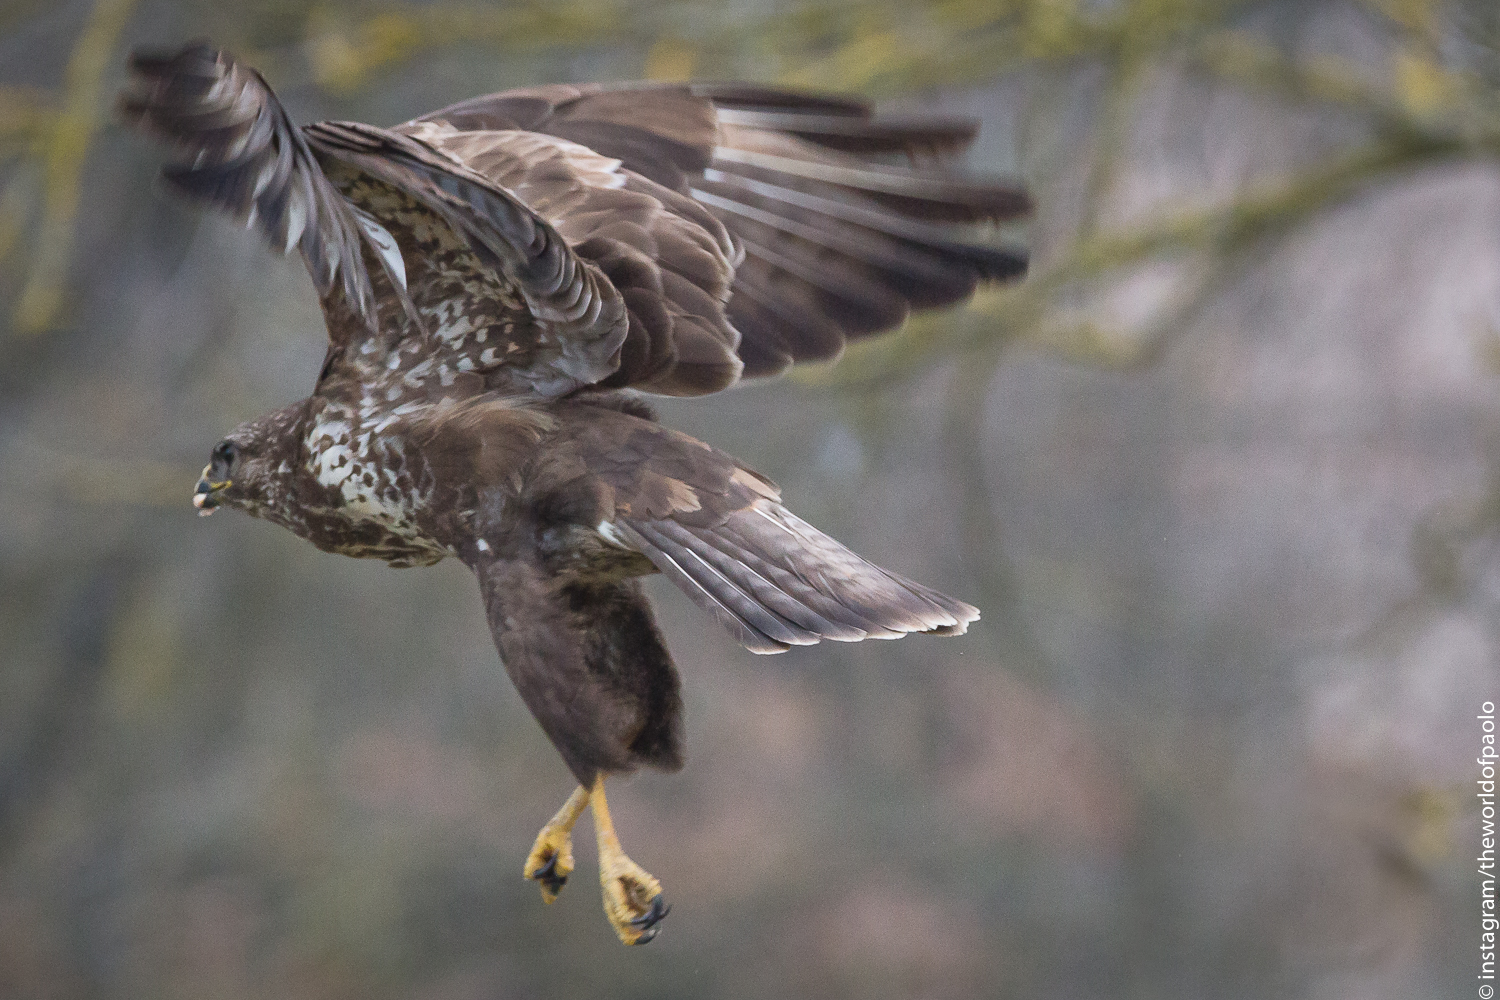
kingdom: Animalia
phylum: Chordata
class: Aves
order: Accipitriformes
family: Accipitridae
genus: Buteo
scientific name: Buteo buteo
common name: Common buzzard
